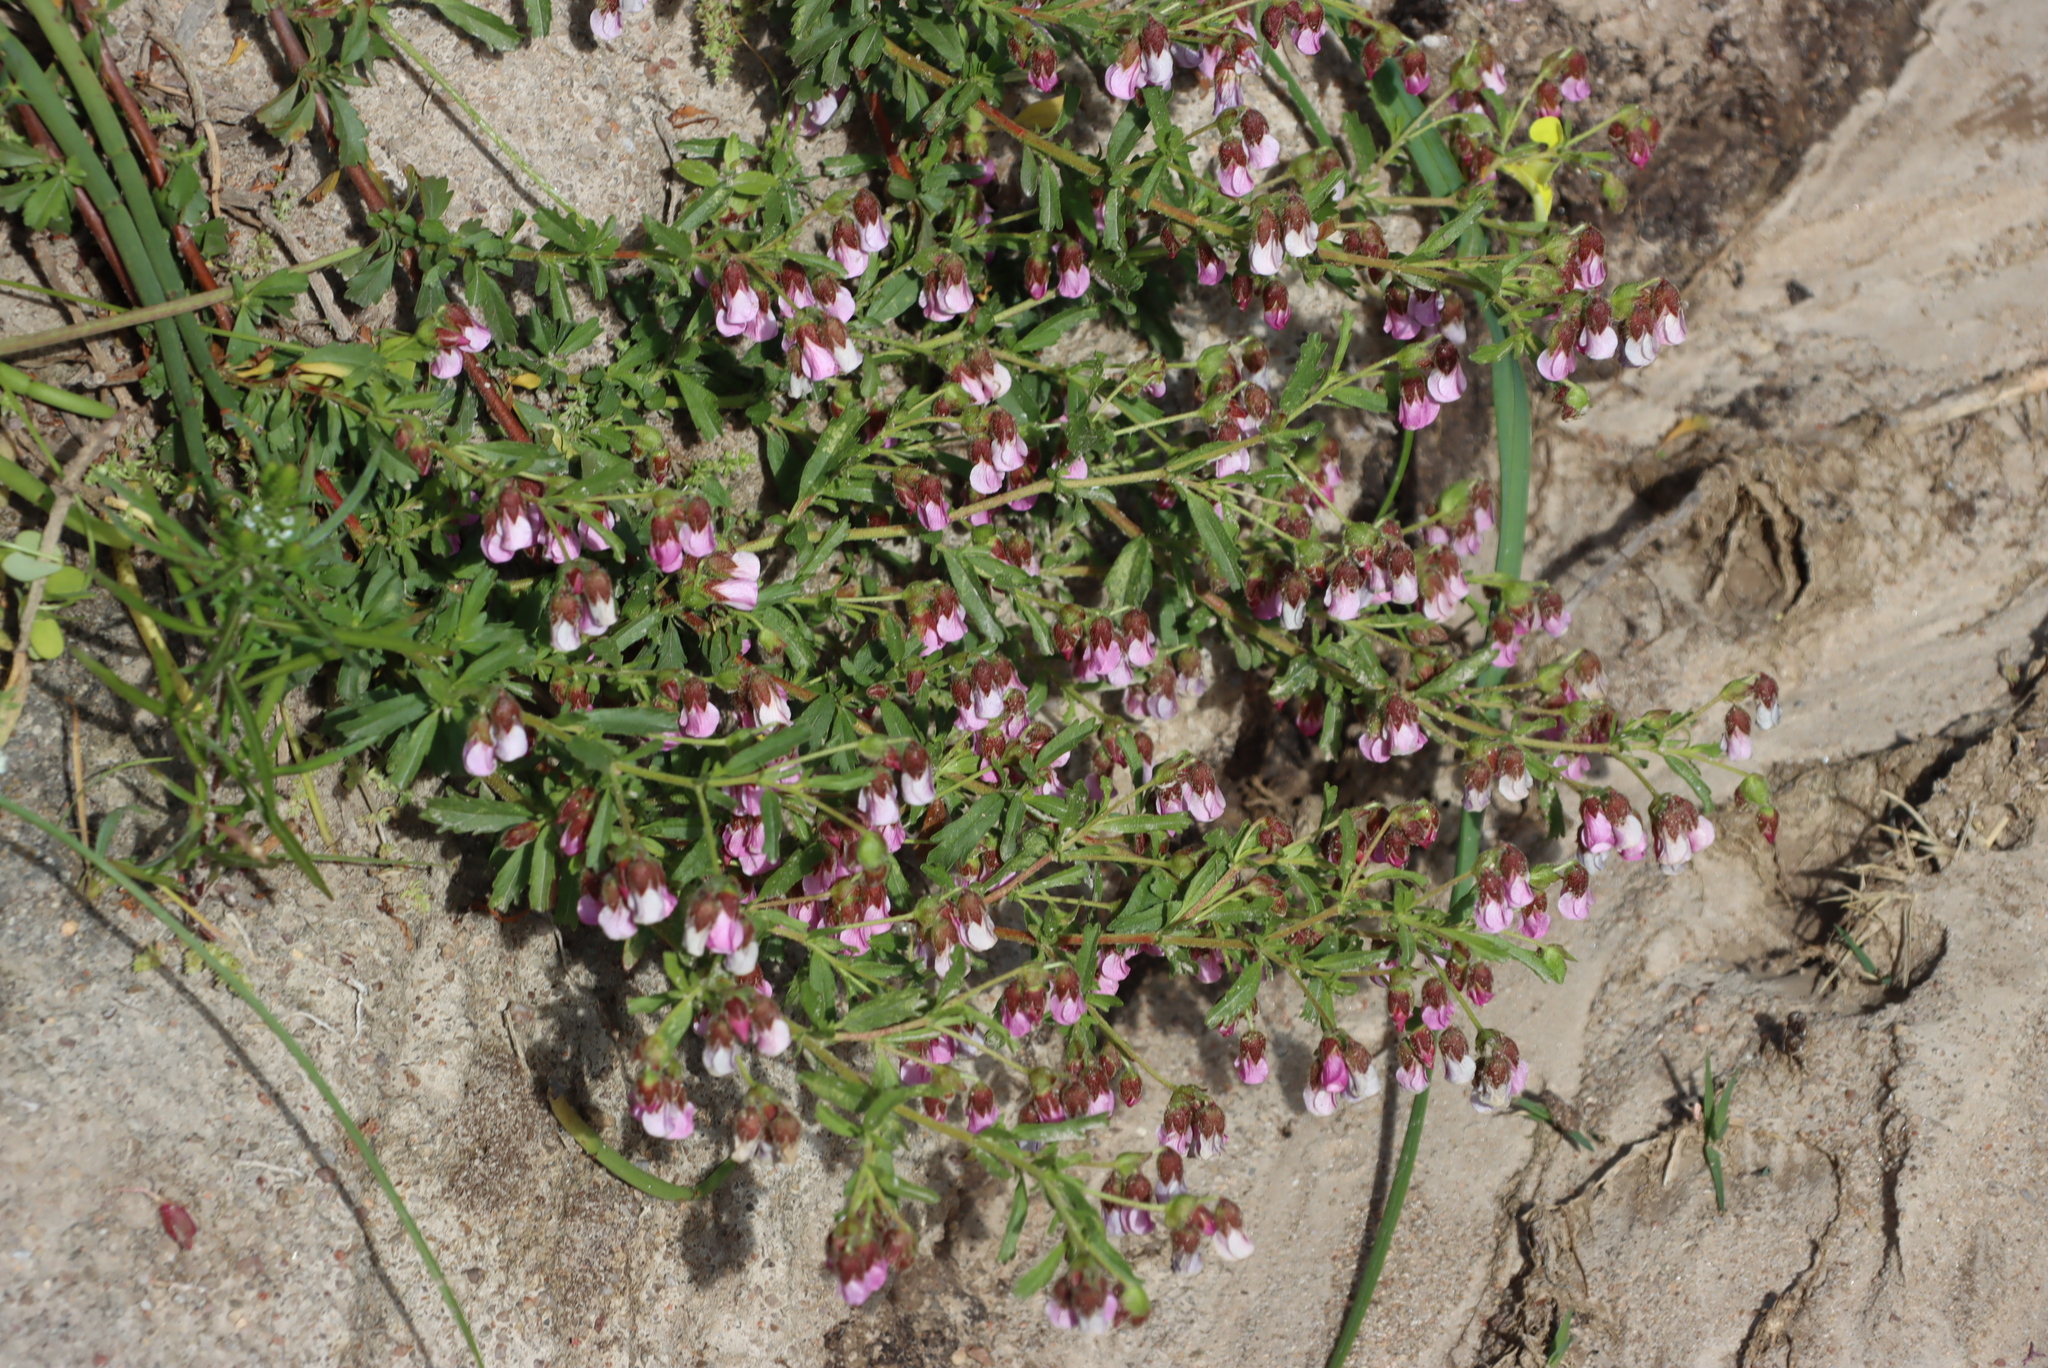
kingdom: Plantae
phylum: Tracheophyta
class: Magnoliopsida
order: Malvales
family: Malvaceae
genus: Hermannia
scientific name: Hermannia heterophylla
